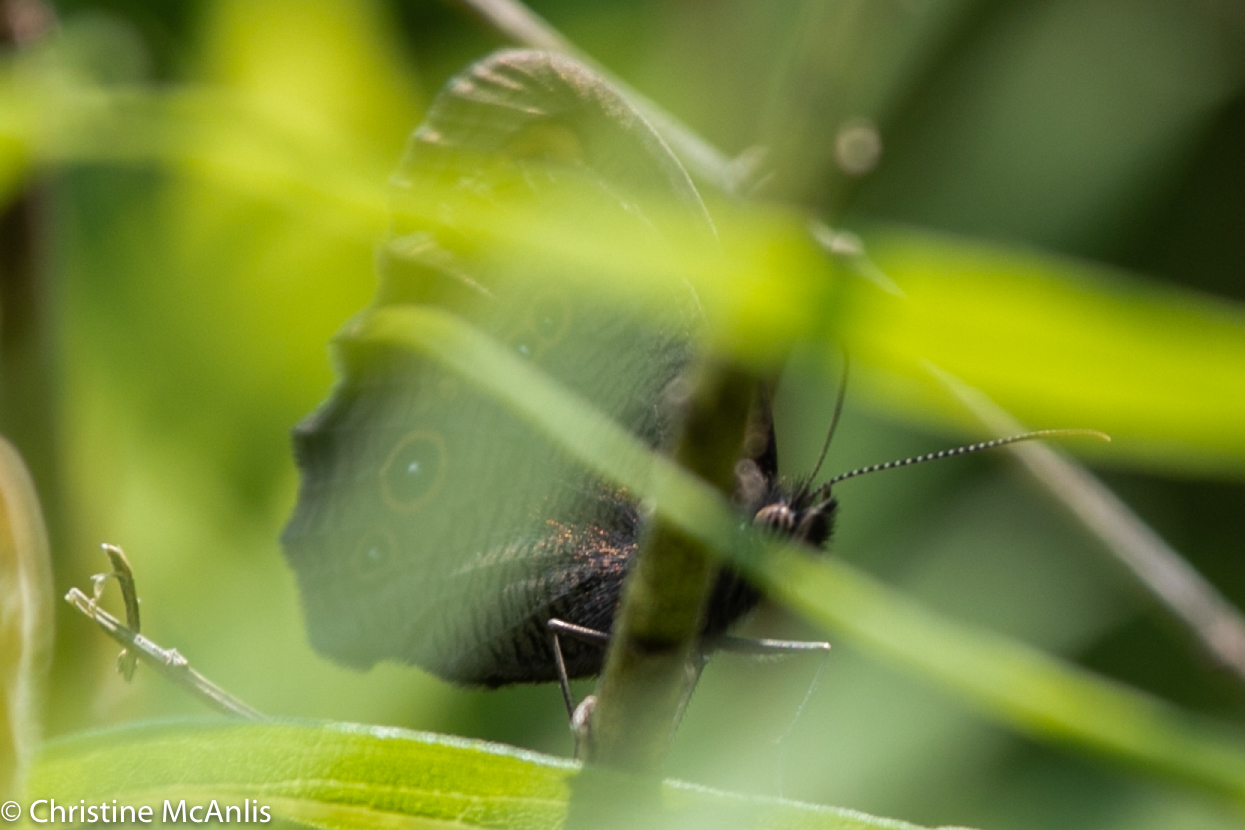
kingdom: Animalia
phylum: Arthropoda
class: Insecta
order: Lepidoptera
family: Nymphalidae
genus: Cercyonis
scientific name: Cercyonis pegala
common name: Common wood-nymph
